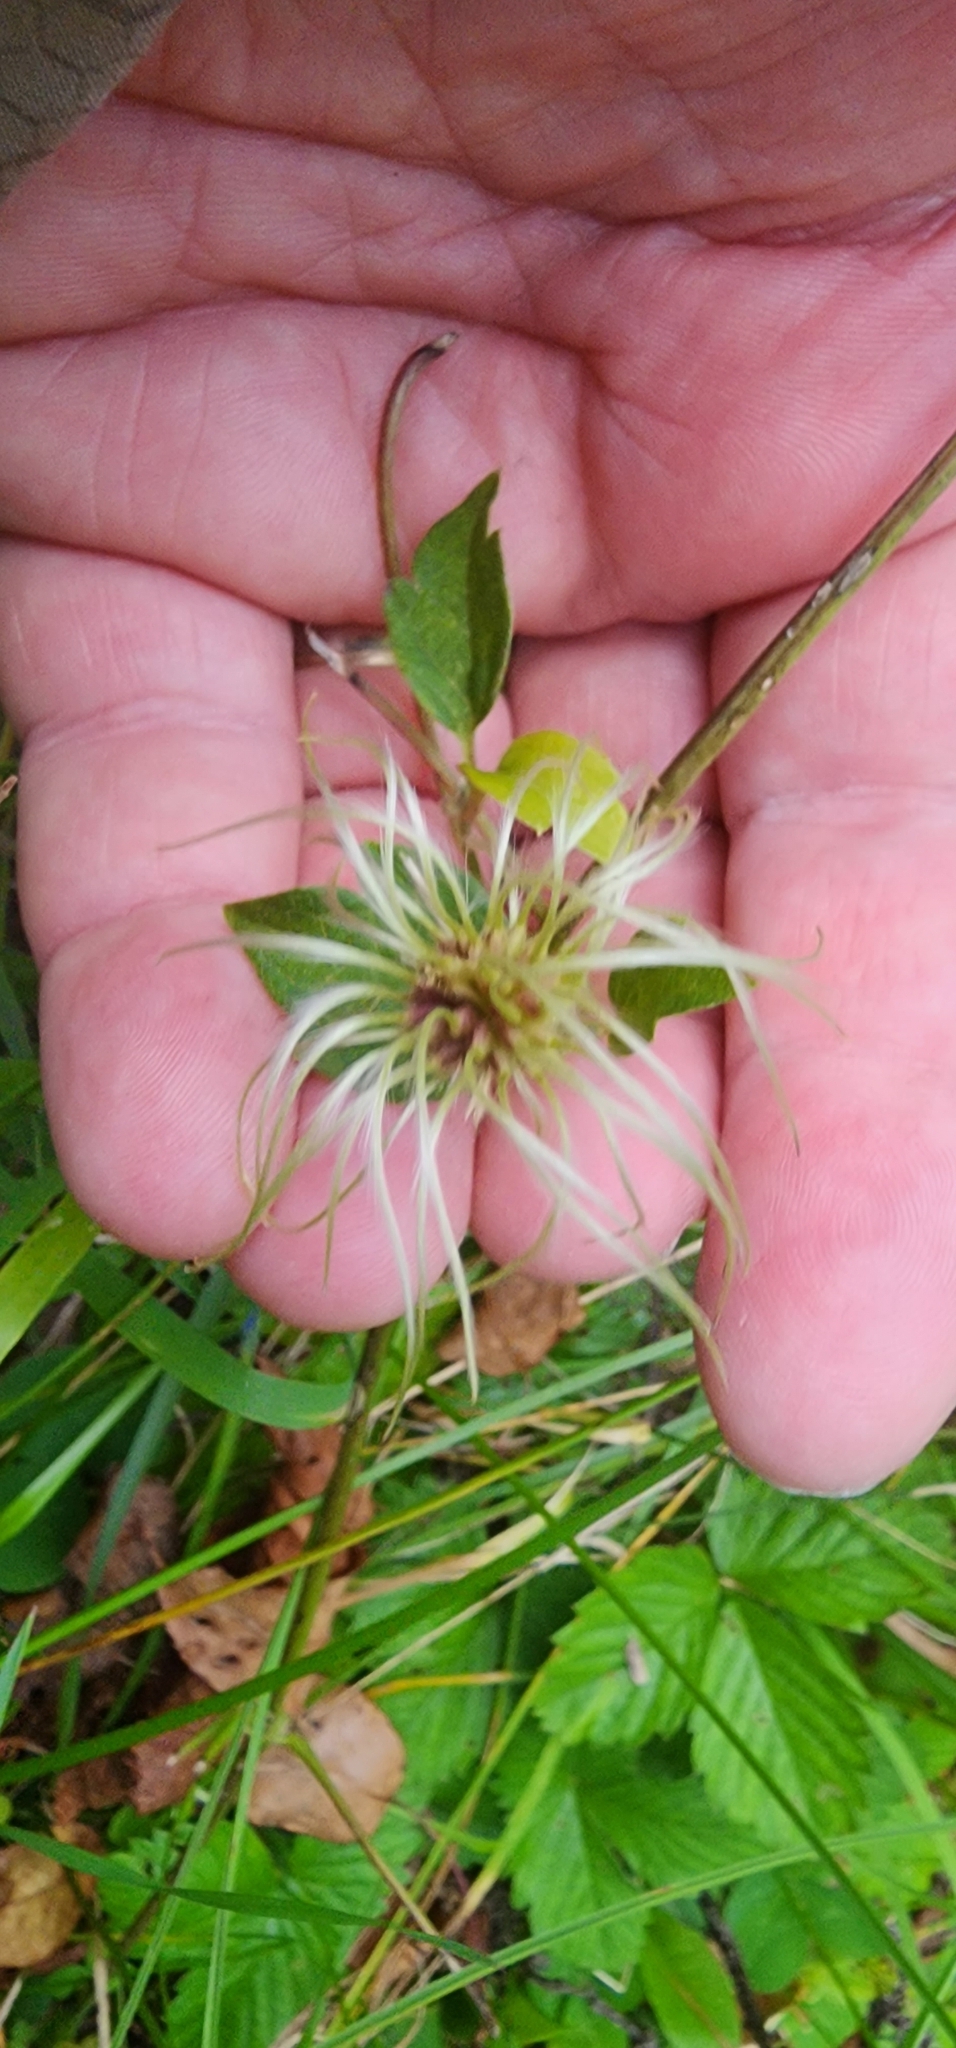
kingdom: Plantae
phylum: Tracheophyta
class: Magnoliopsida
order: Ranunculales
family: Ranunculaceae
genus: Clematis
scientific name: Clematis virginiana
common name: Virgin's-bower
